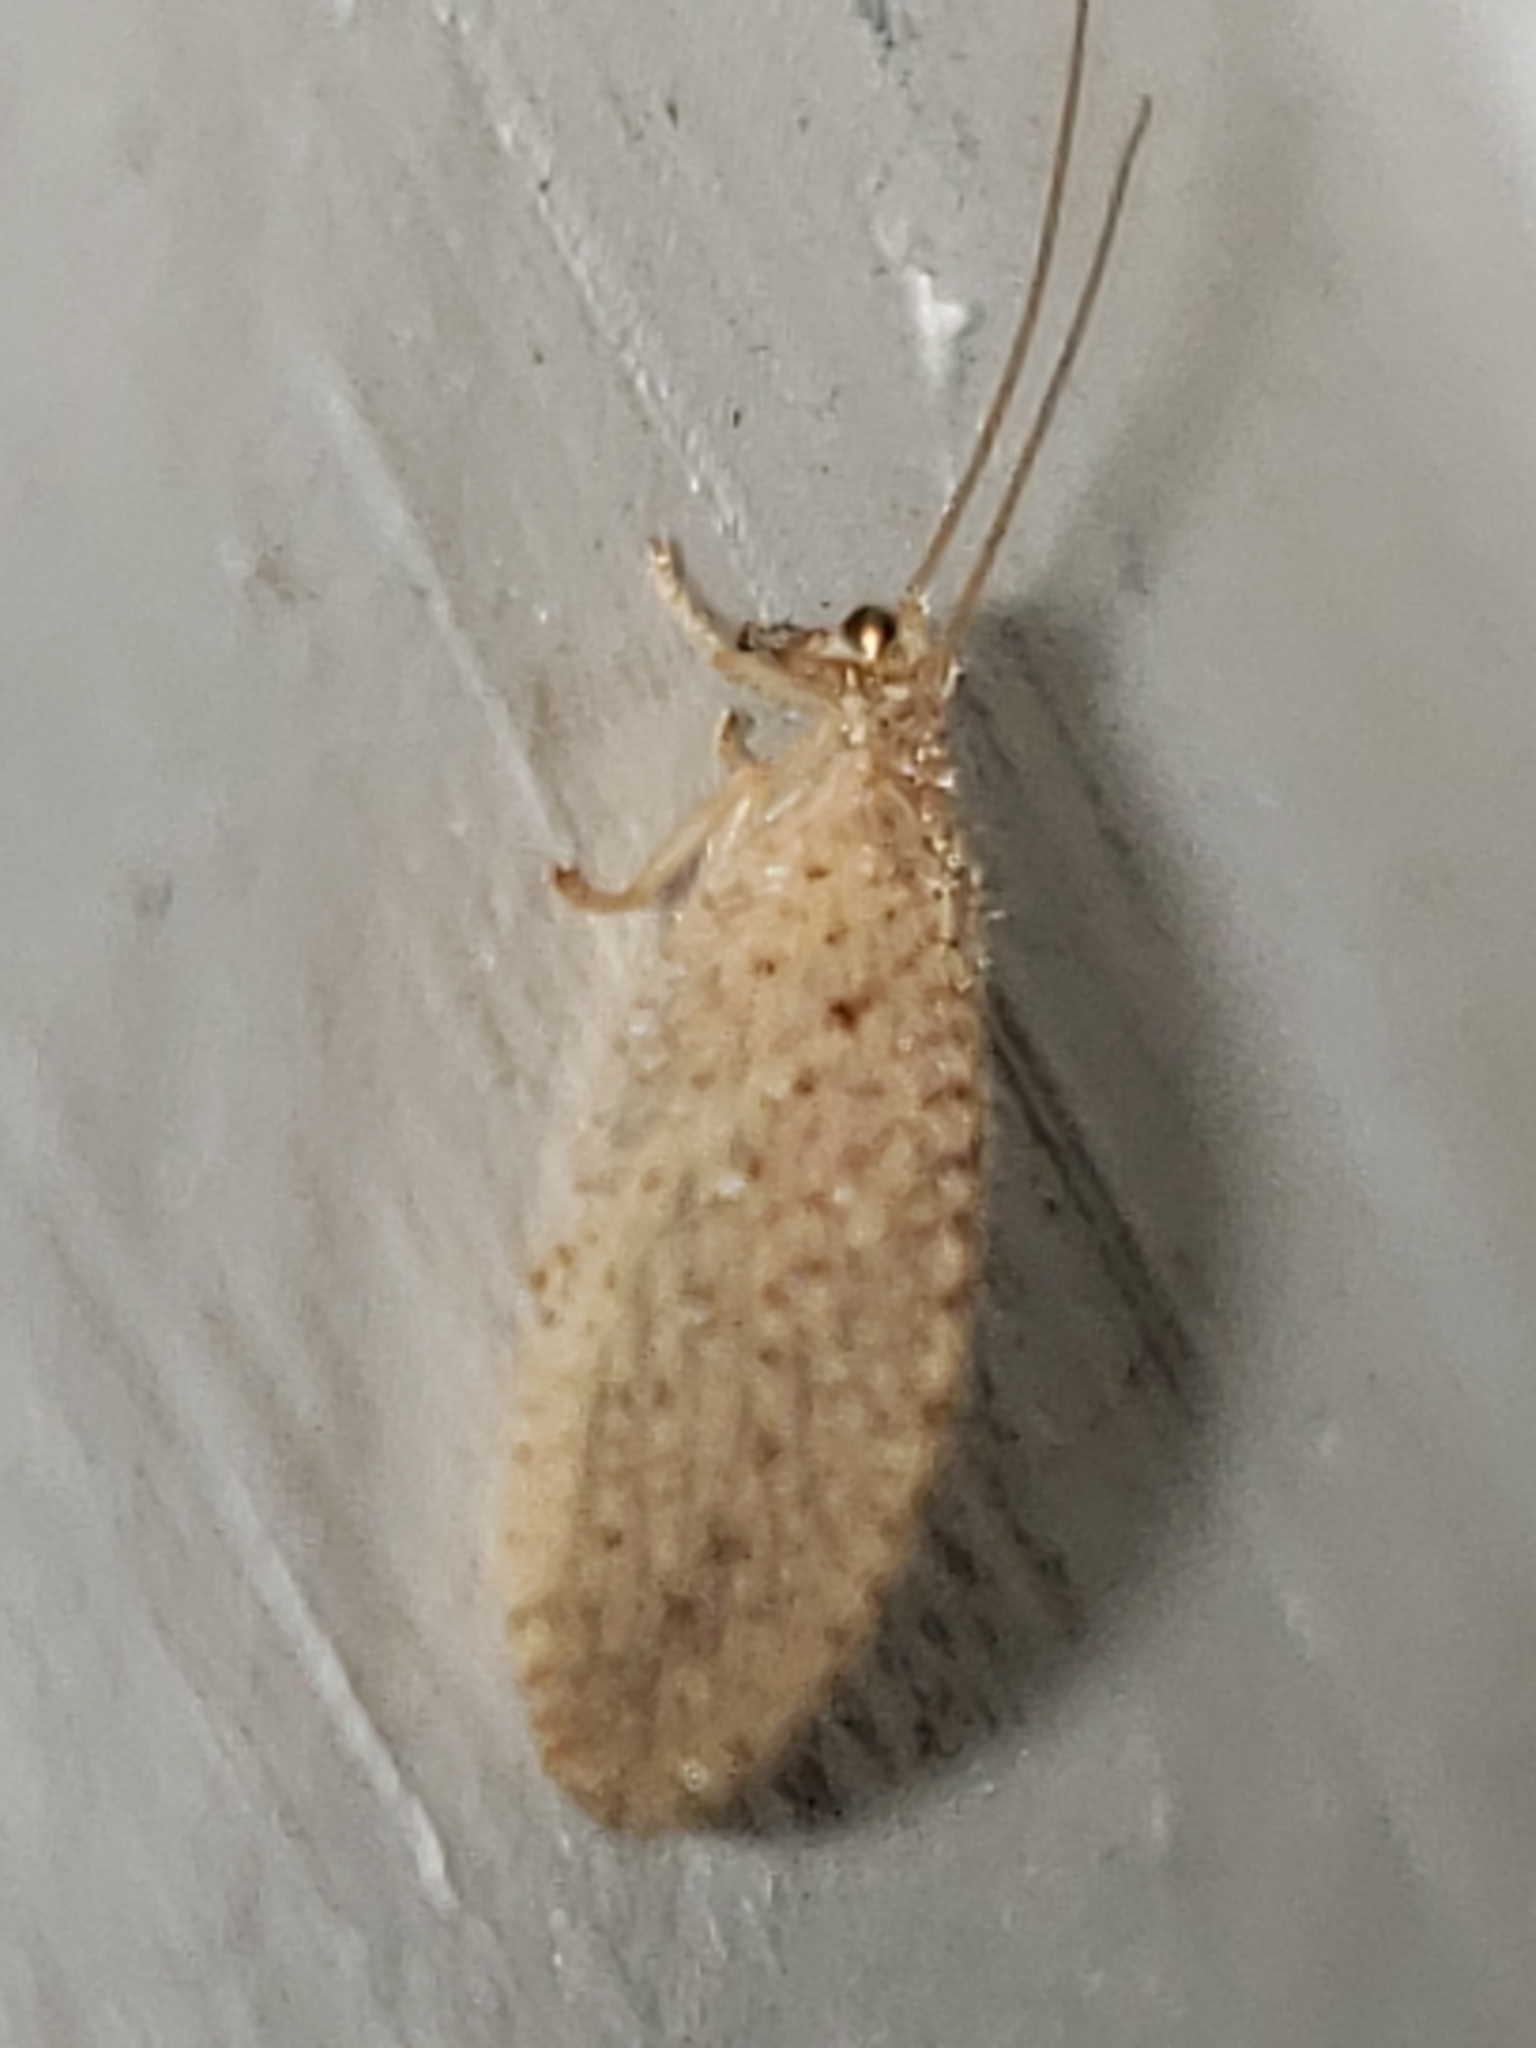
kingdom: Animalia
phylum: Arthropoda
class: Insecta
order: Neuroptera
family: Hemerobiidae
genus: Micromus
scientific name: Micromus subanticus
